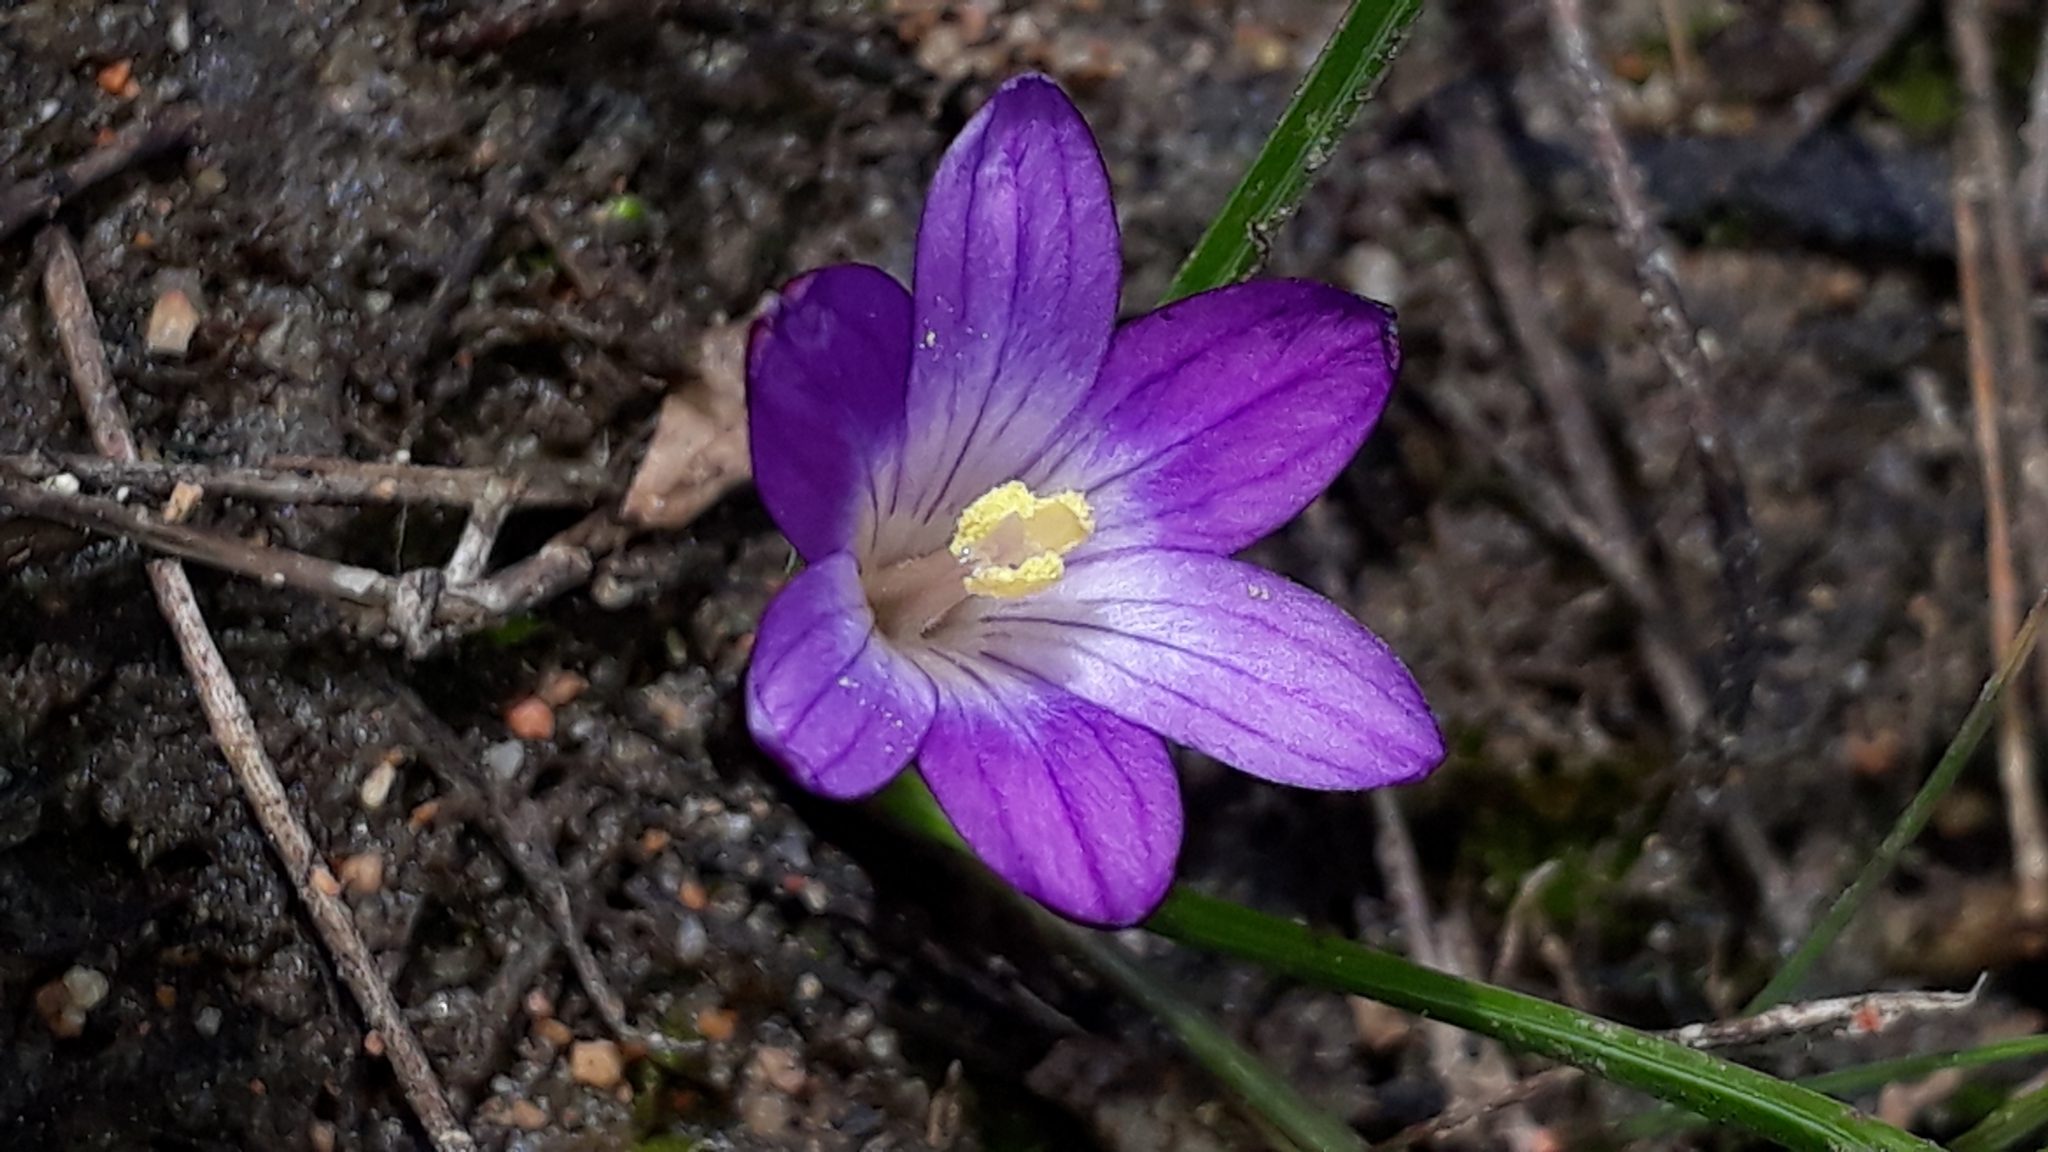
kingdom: Plantae
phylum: Tracheophyta
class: Liliopsida
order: Asparagales
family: Iridaceae
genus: Romulea
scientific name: Romulea revelierei
